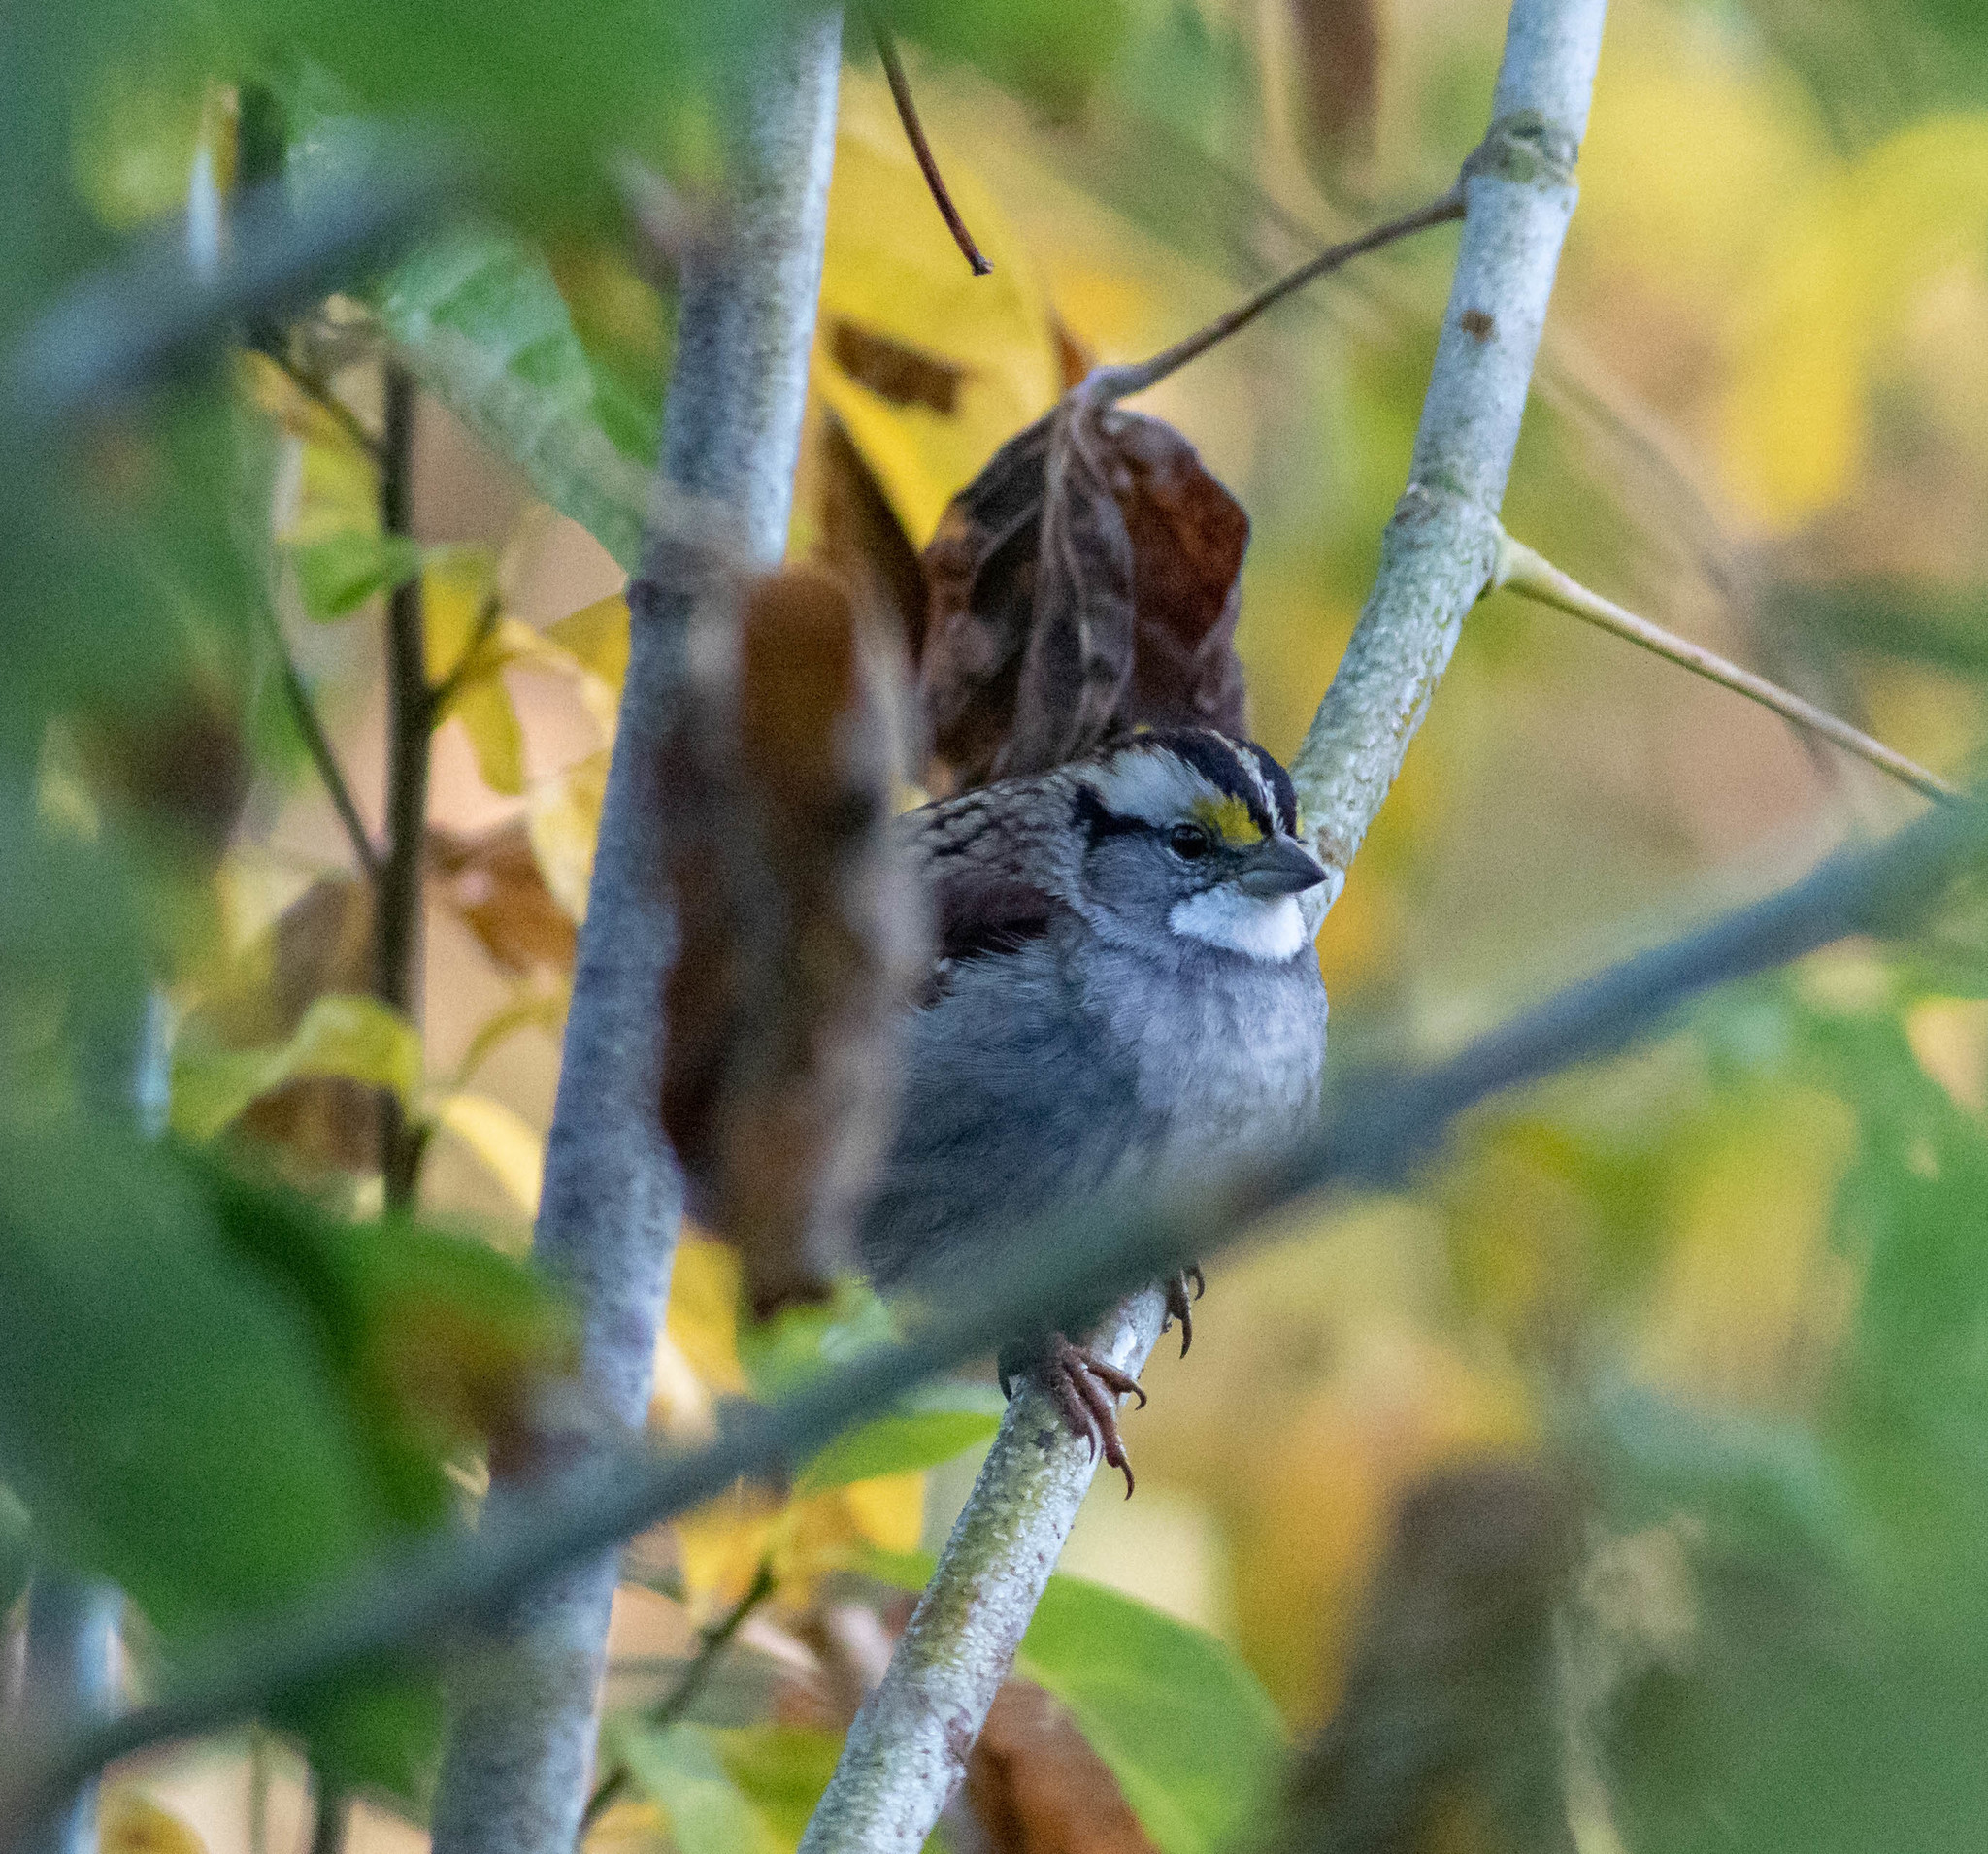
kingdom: Animalia
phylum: Chordata
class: Aves
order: Passeriformes
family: Passerellidae
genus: Zonotrichia
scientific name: Zonotrichia albicollis
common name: White-throated sparrow
